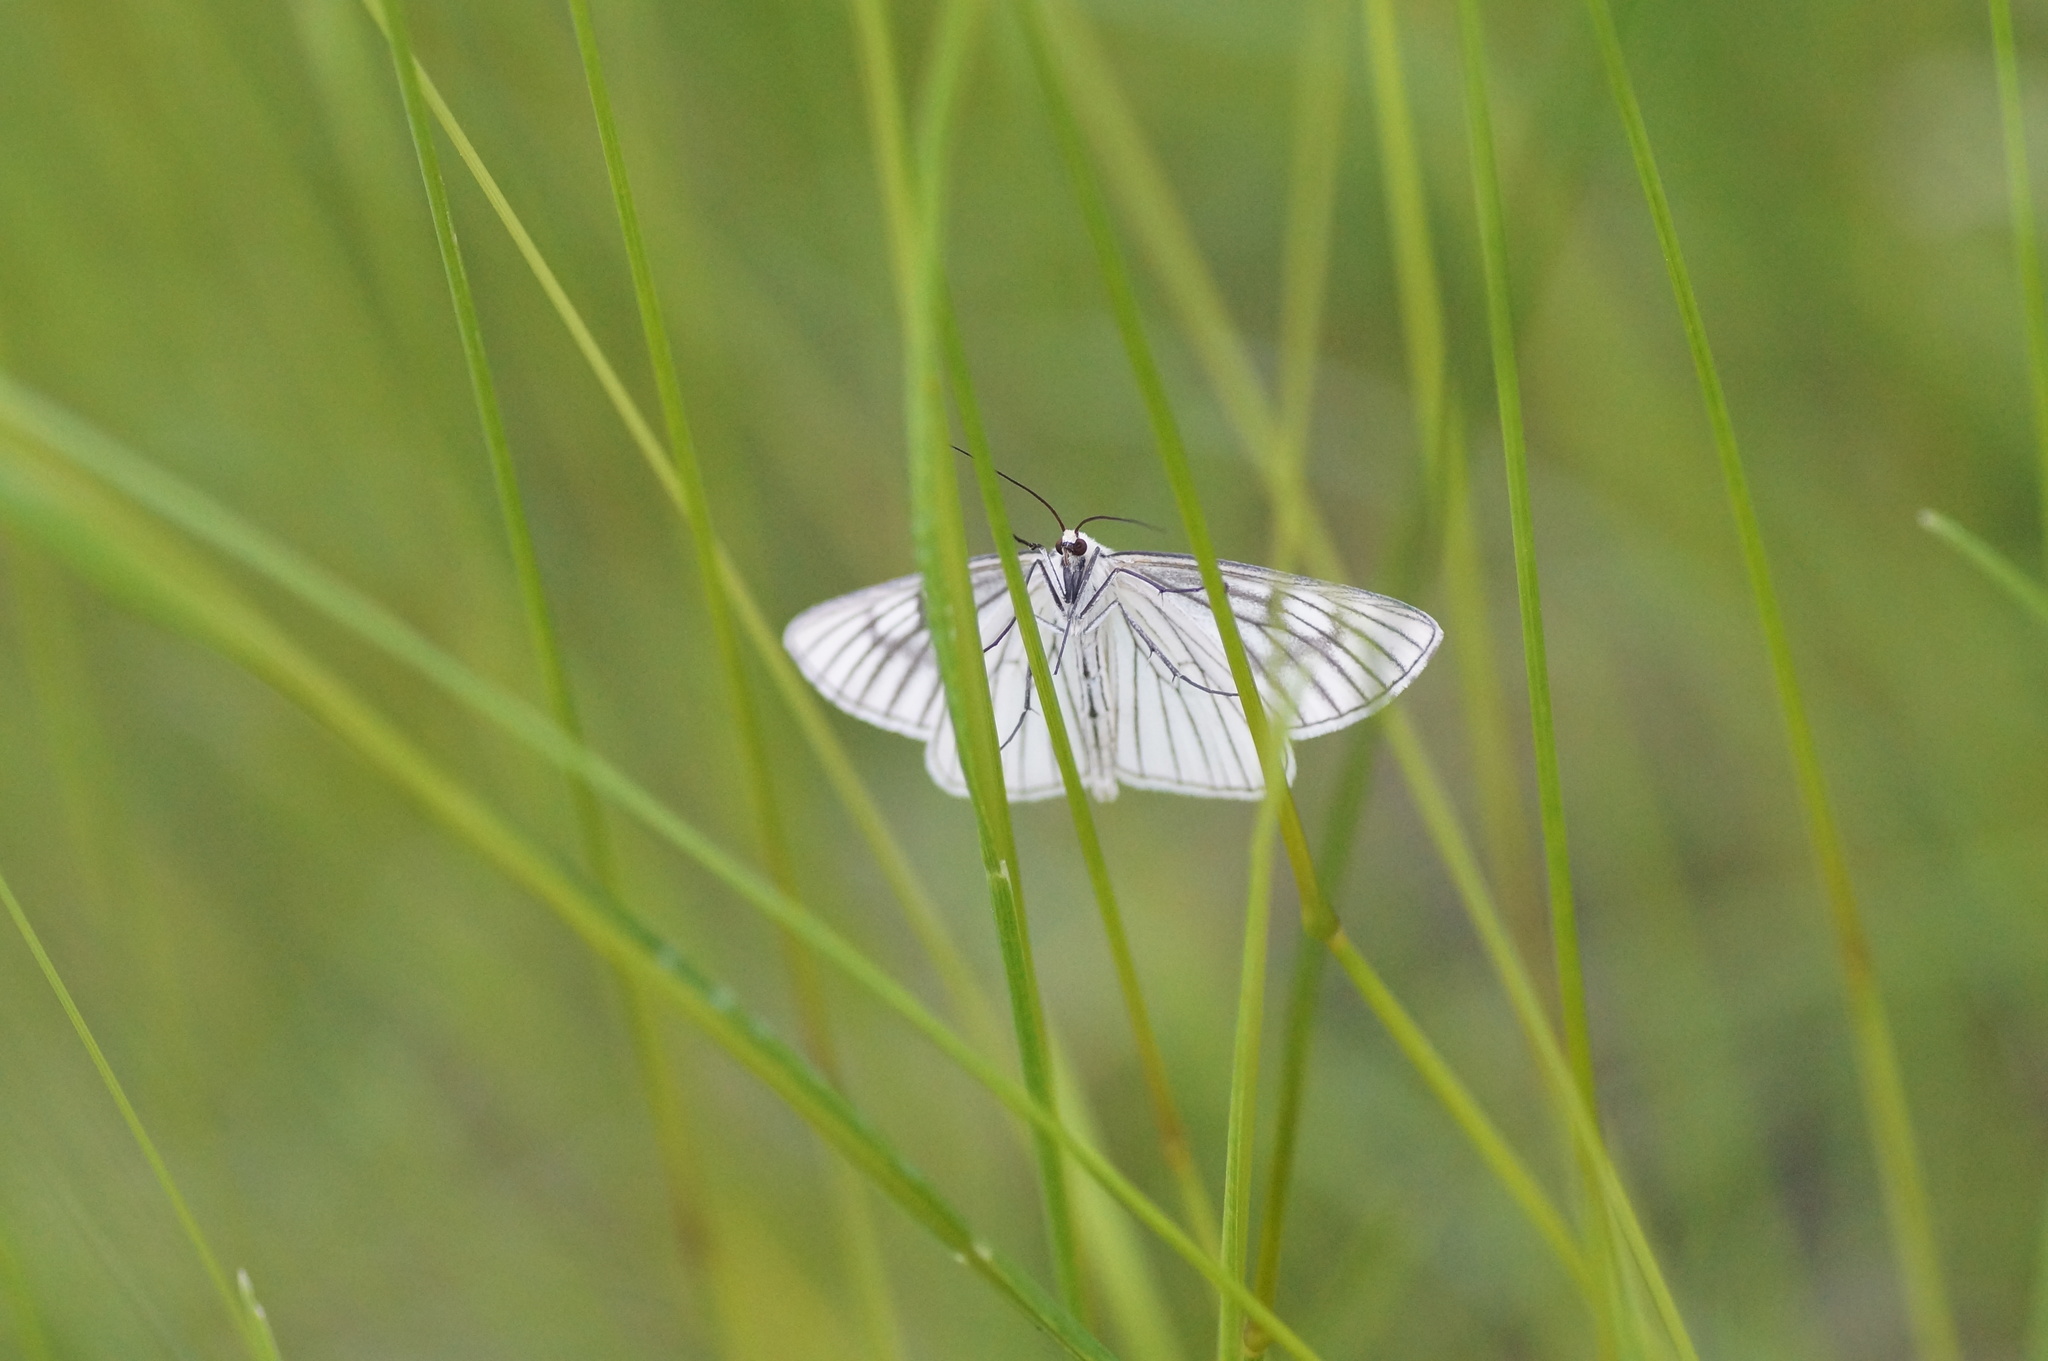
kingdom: Animalia
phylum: Arthropoda
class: Insecta
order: Lepidoptera
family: Geometridae
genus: Siona
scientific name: Siona lineata
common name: Black-veined moth
